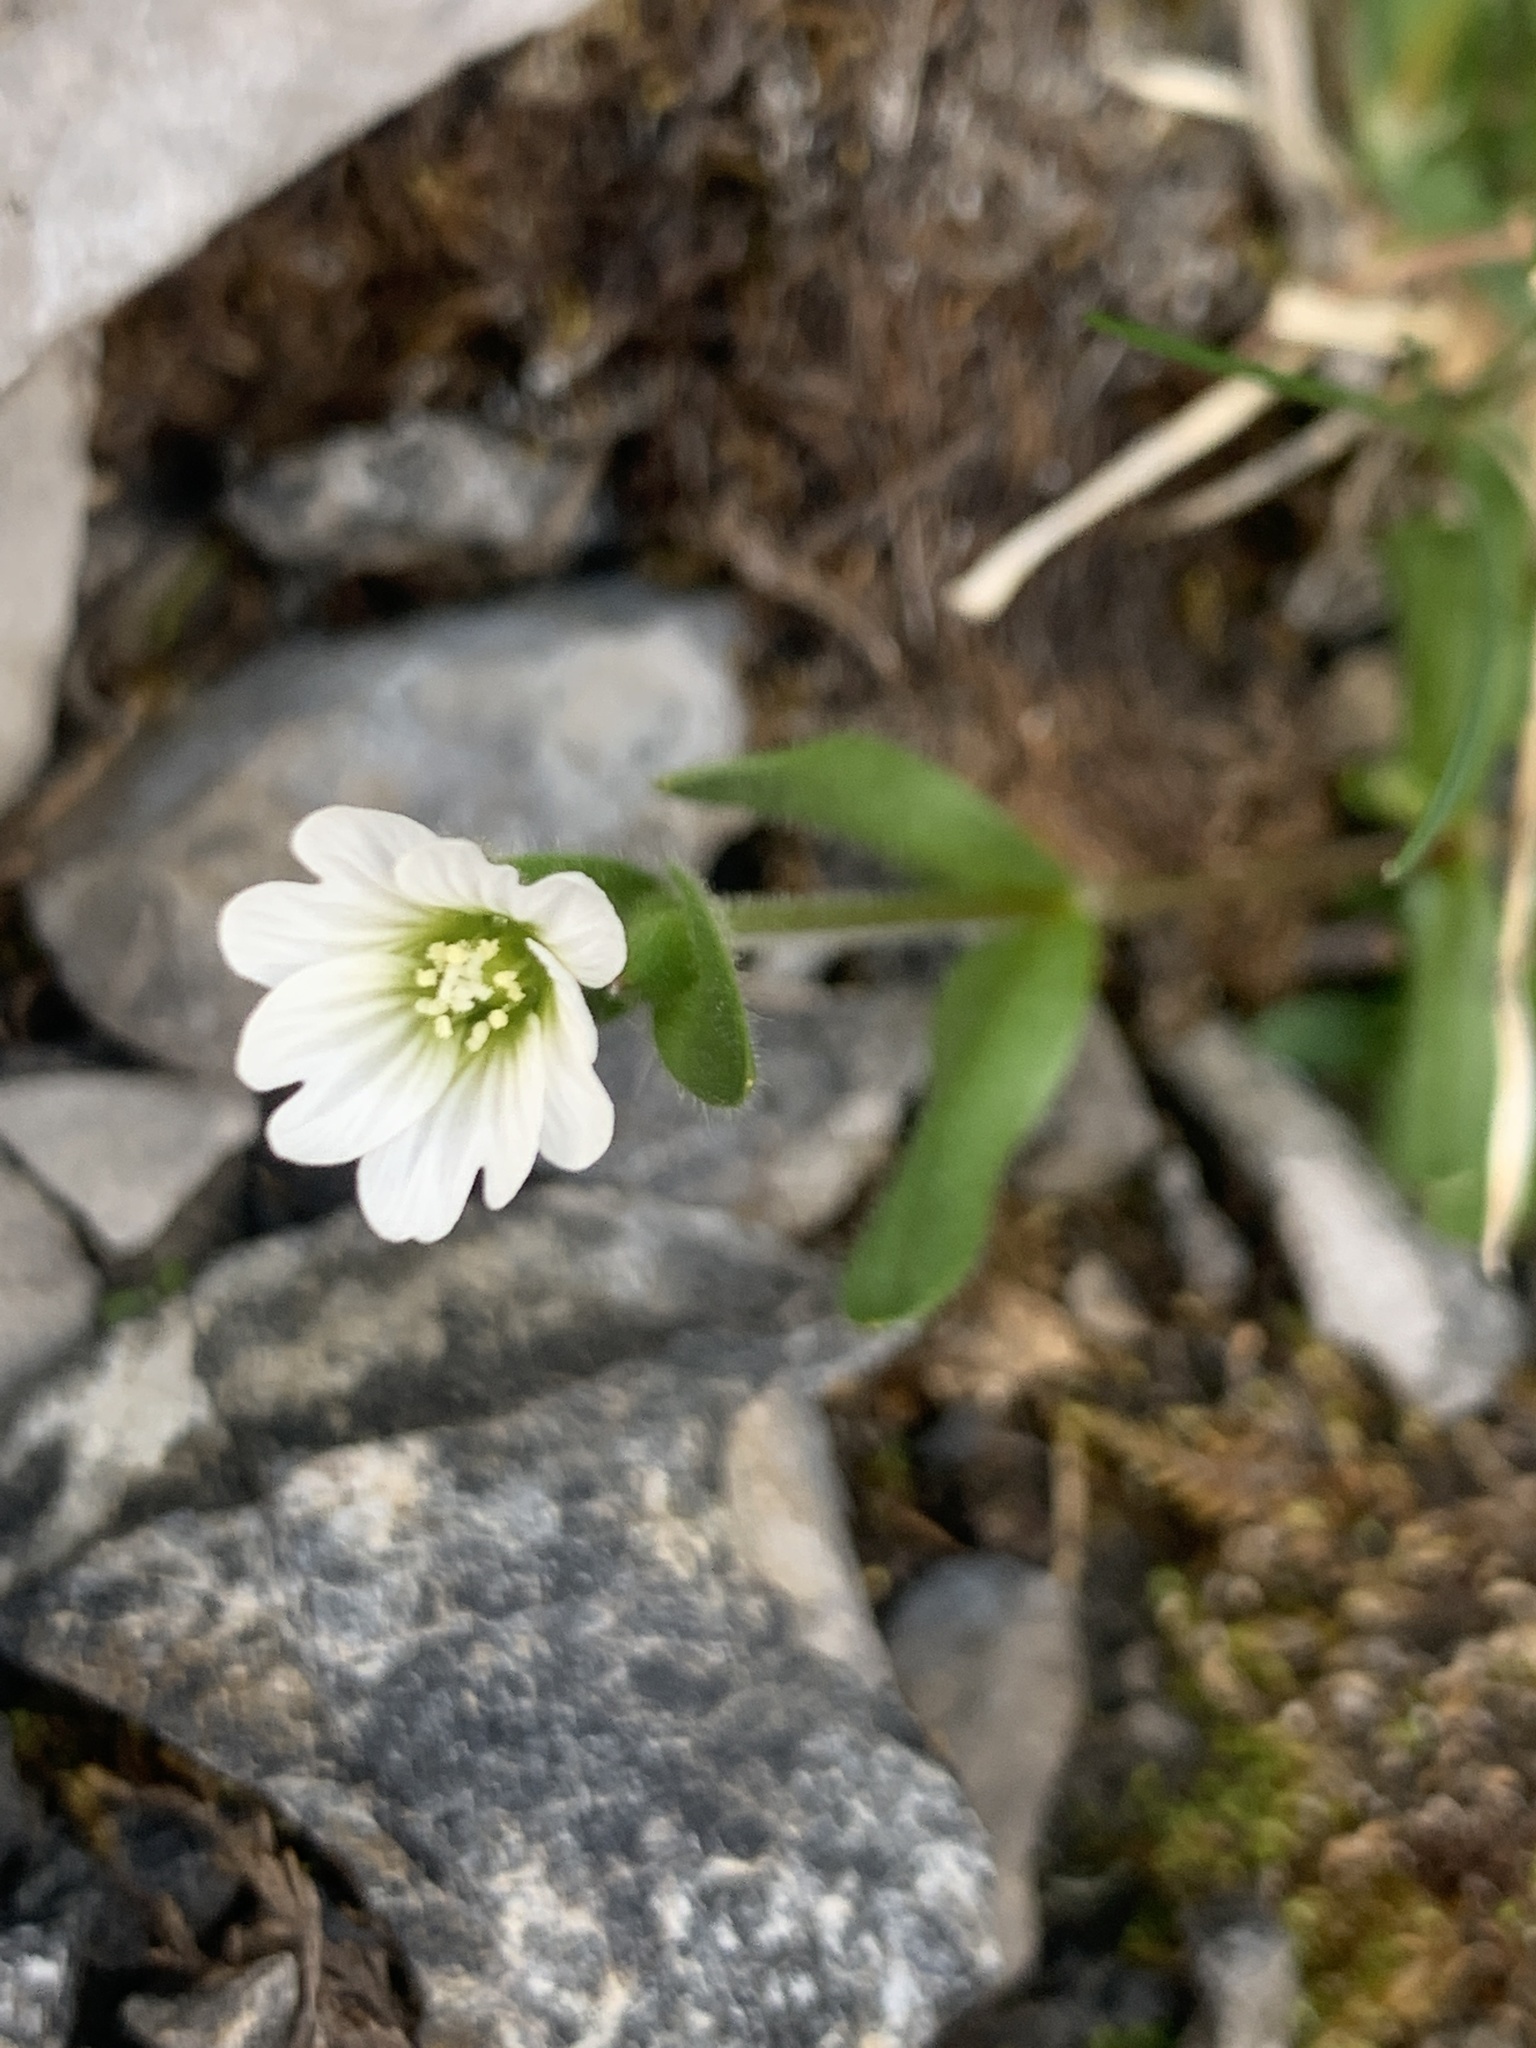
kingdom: Plantae
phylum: Tracheophyta
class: Magnoliopsida
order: Caryophyllales
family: Caryophyllaceae
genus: Cerastium
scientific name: Cerastium beeringianum
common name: Bering mouse-ear chickweed
